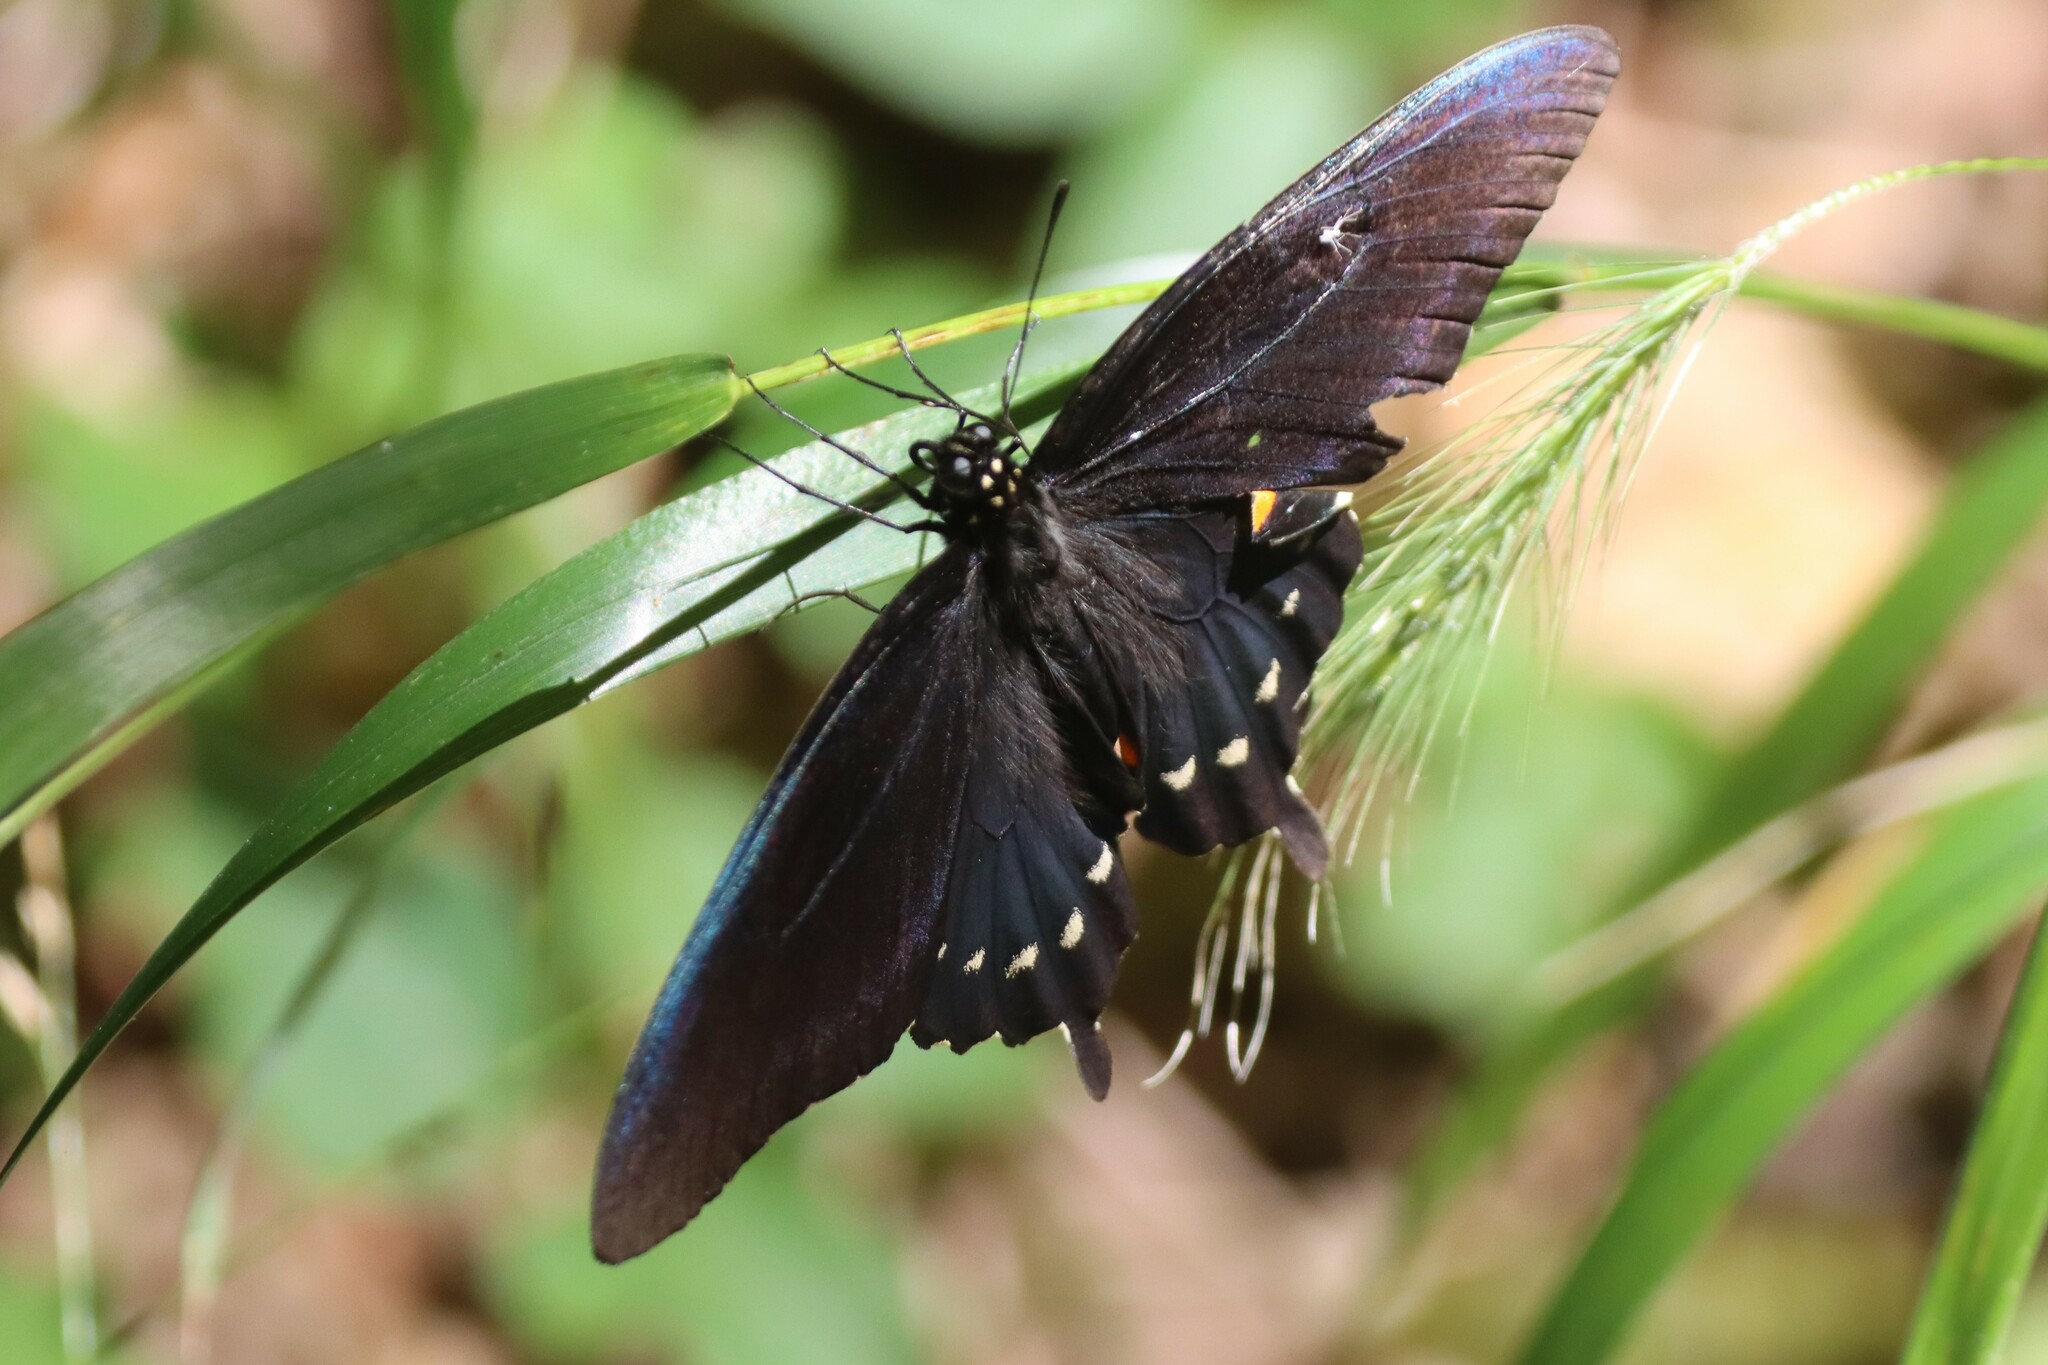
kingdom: Animalia
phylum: Arthropoda
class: Insecta
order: Lepidoptera
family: Papilionidae
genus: Battus
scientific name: Battus philenor
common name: Pipevine swallowtail
